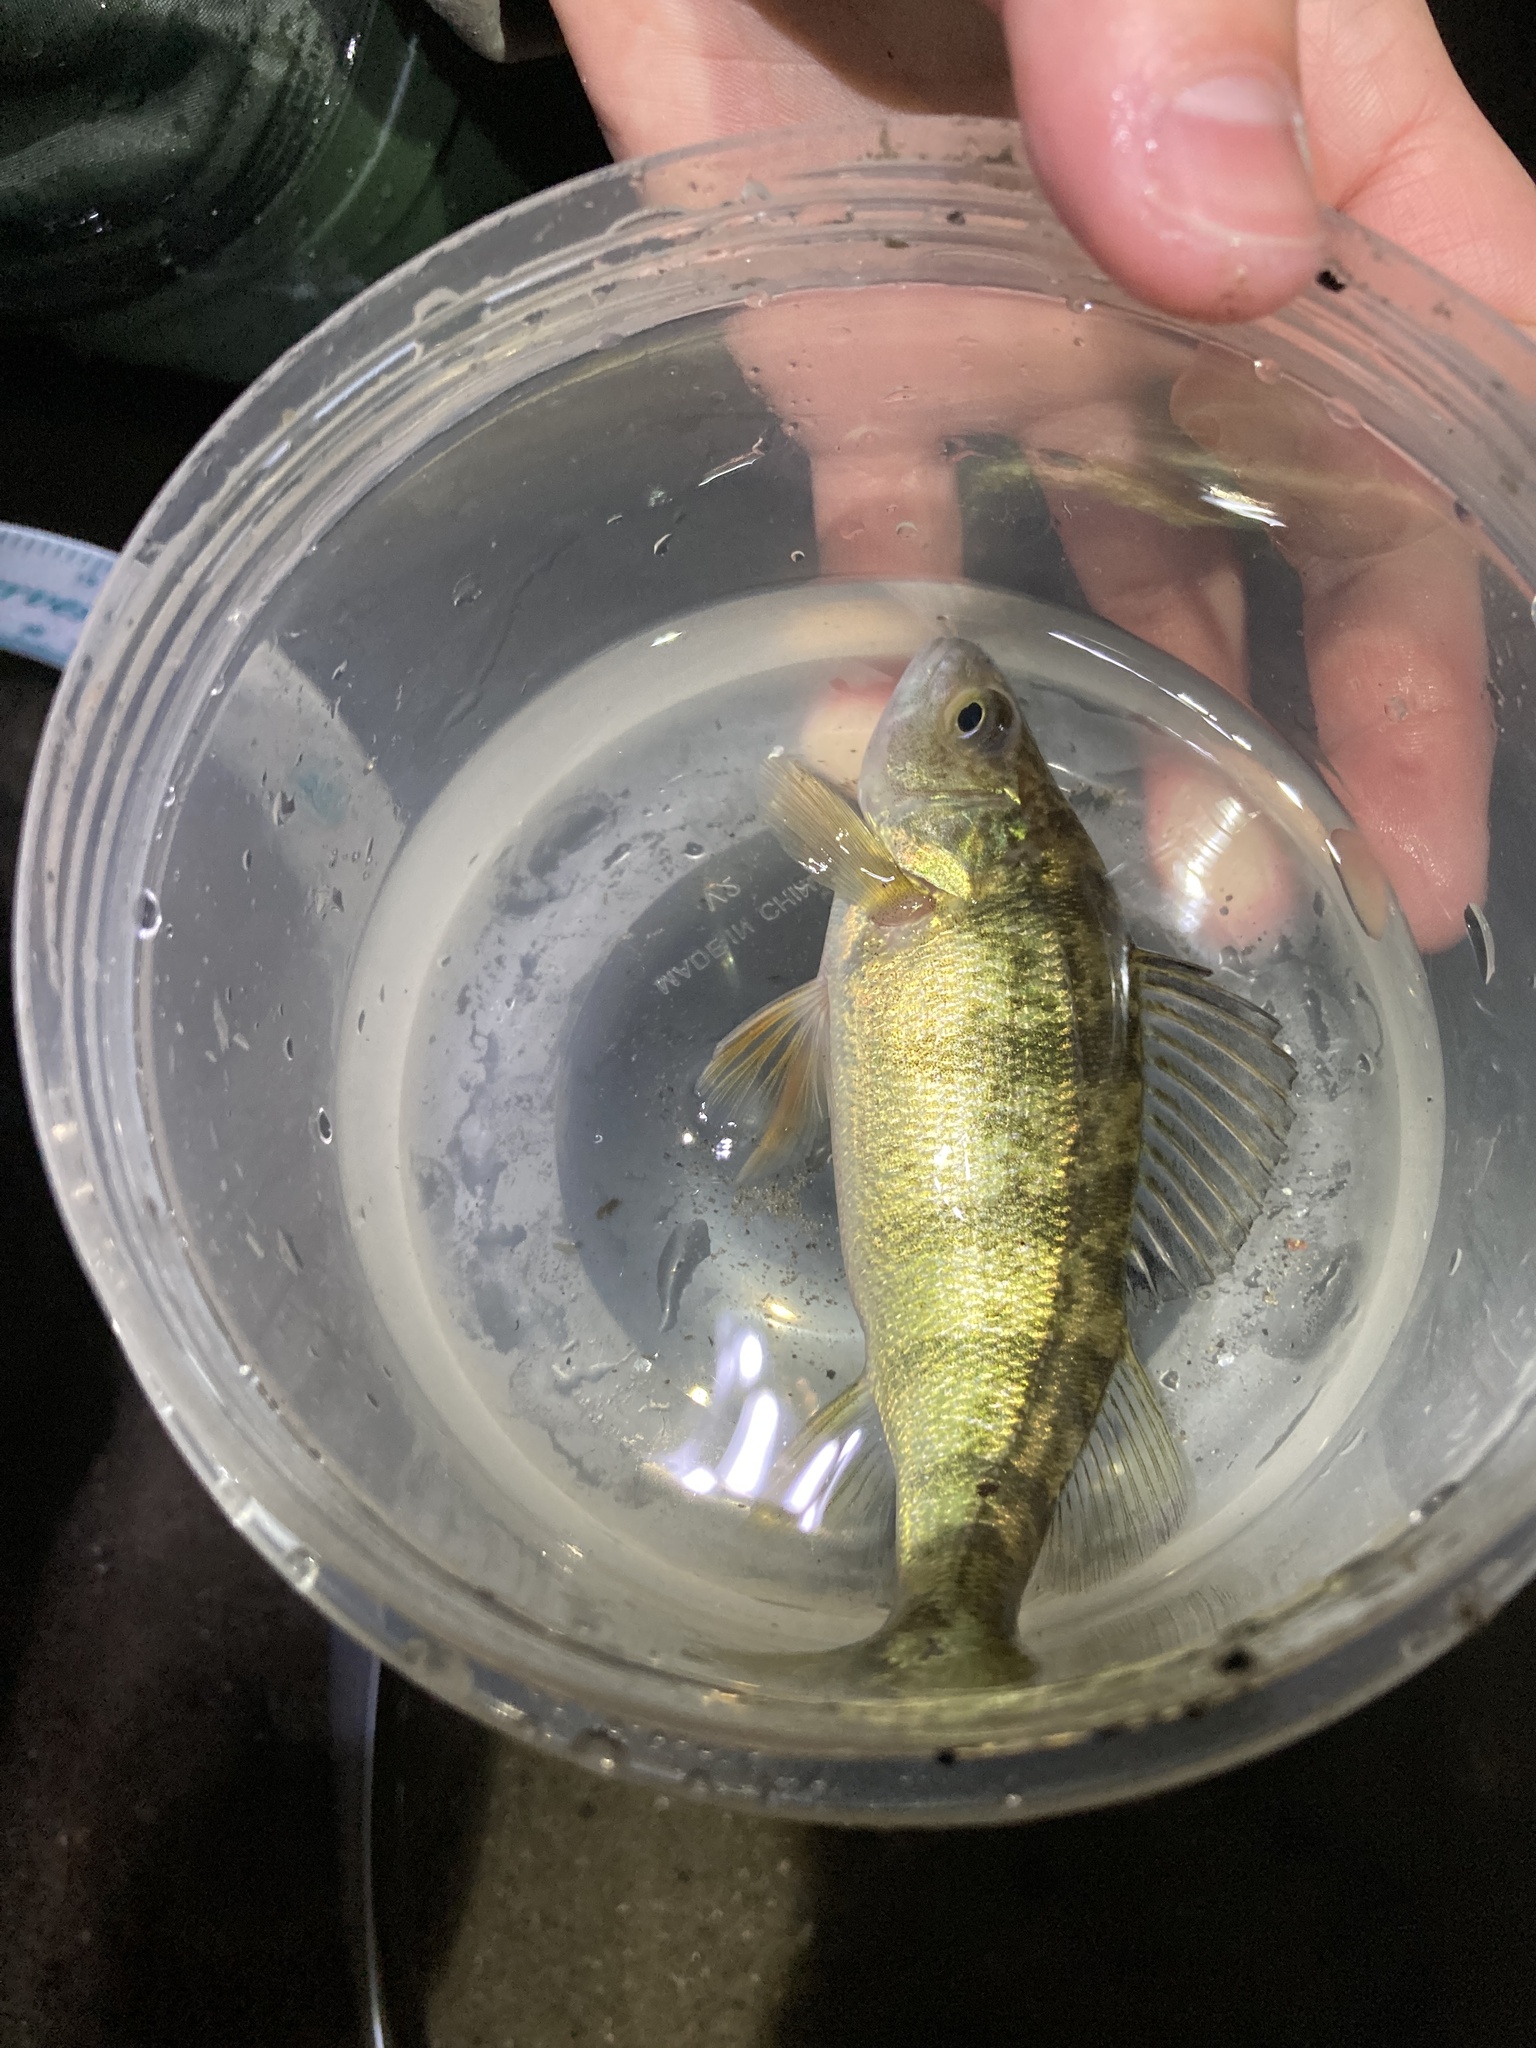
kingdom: Animalia
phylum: Chordata
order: Perciformes
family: Percidae
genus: Perca
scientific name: Perca flavescens
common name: Yellow perch
